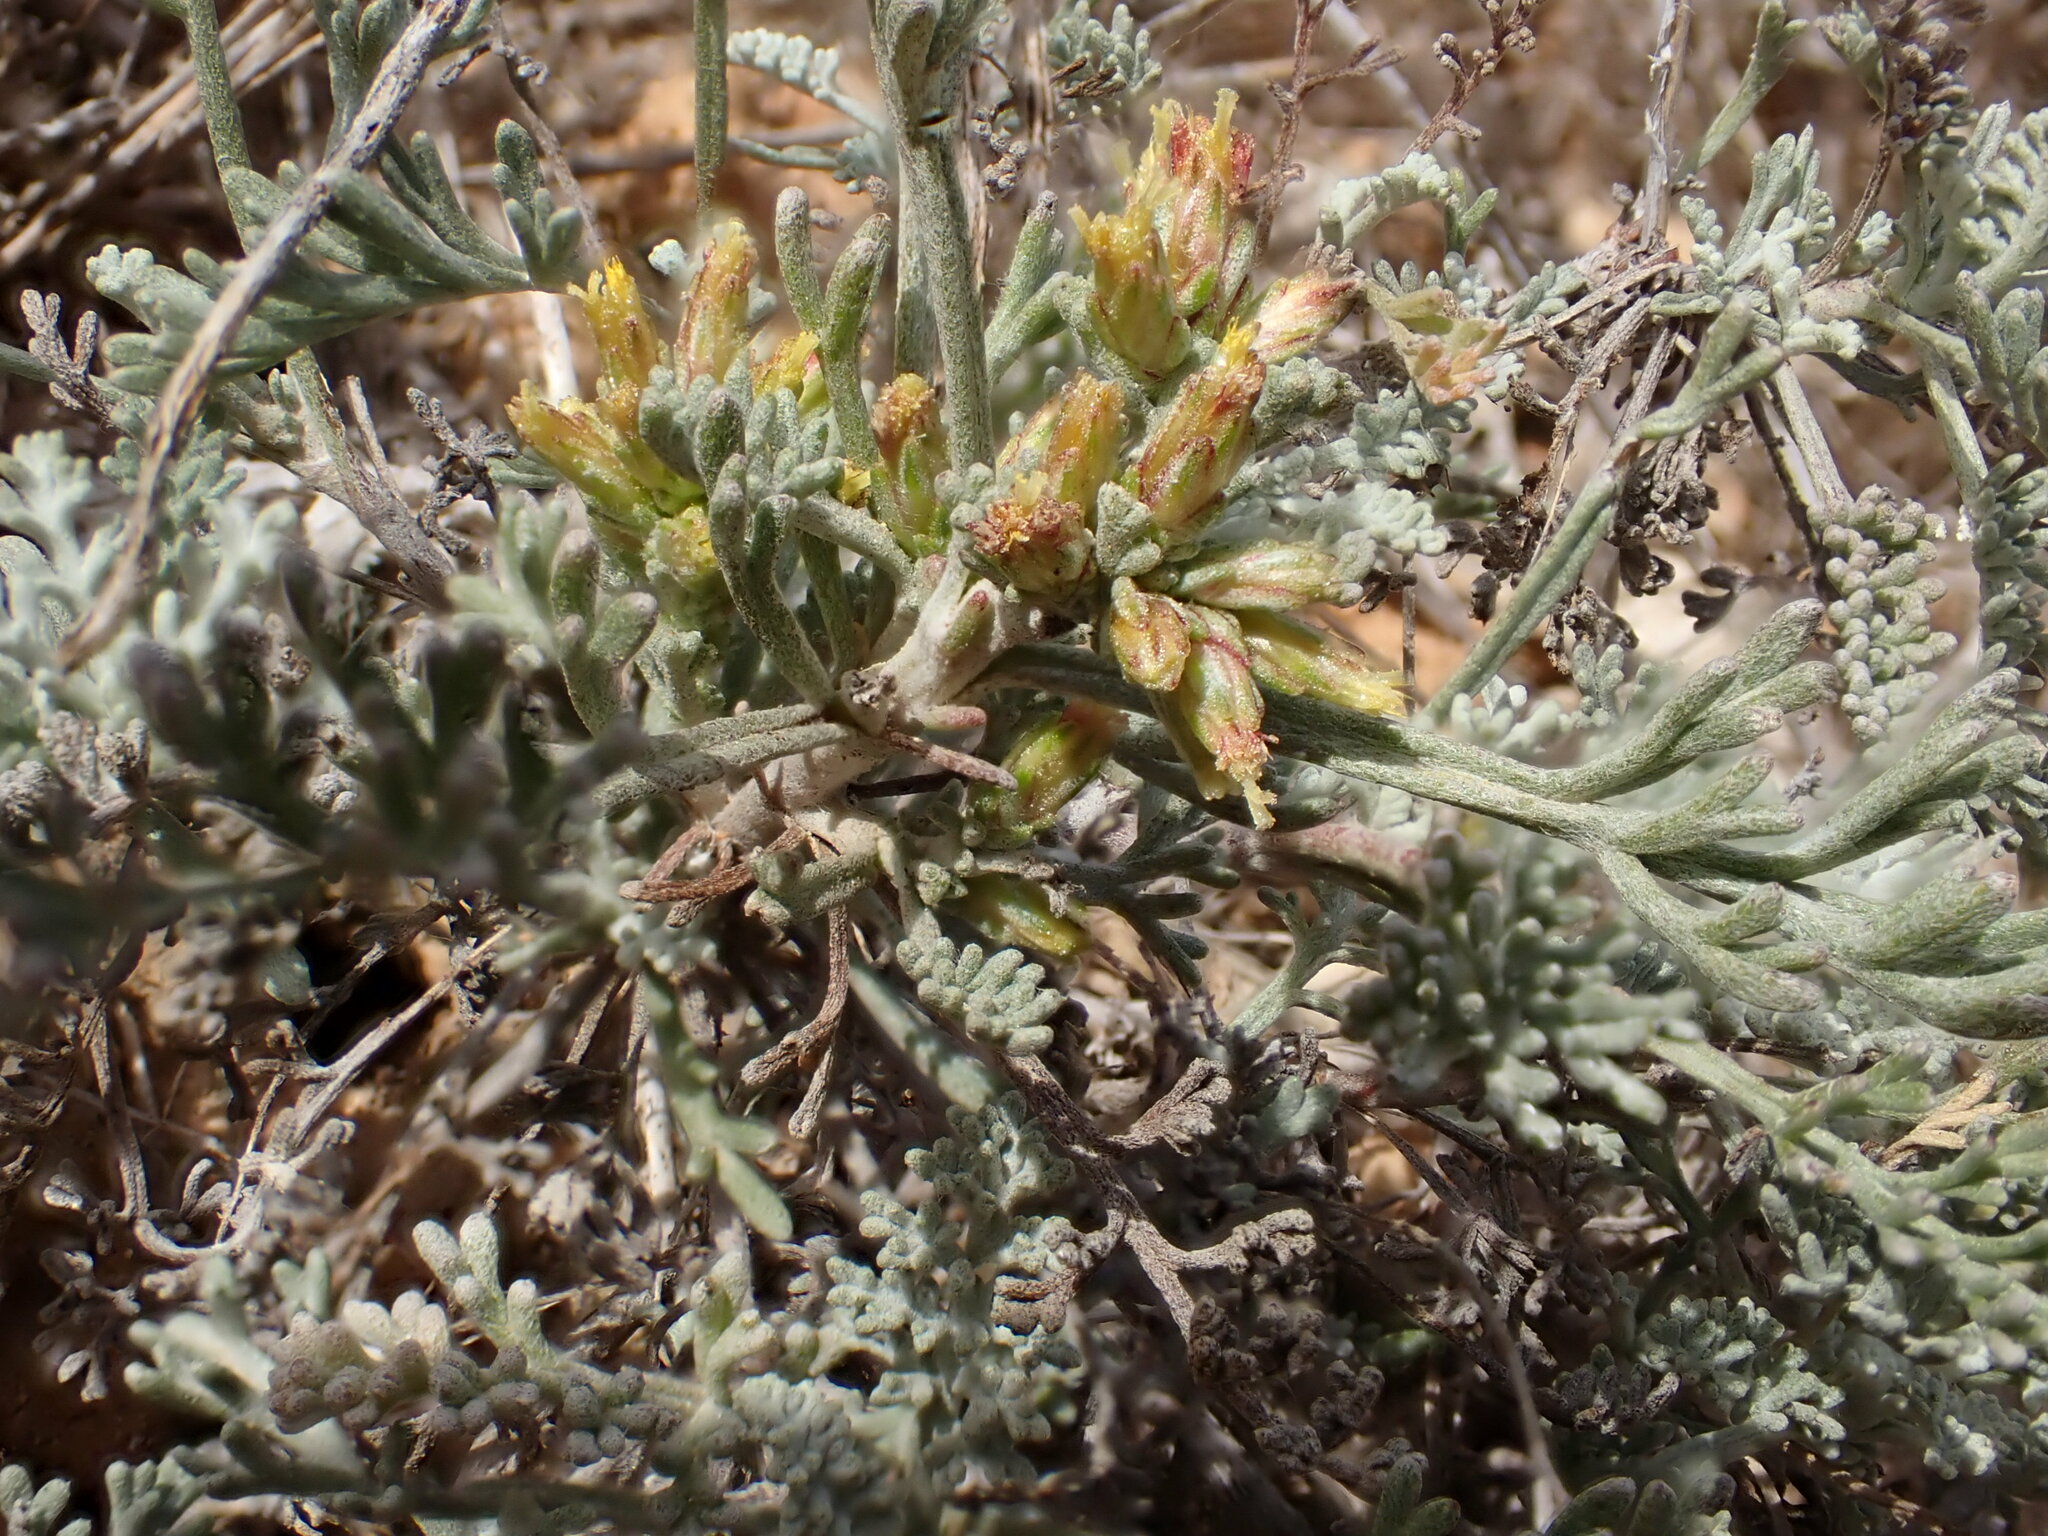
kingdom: Plantae
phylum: Tracheophyta
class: Magnoliopsida
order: Asterales
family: Asteraceae
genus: Artemisia
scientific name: Artemisia caerulescens
